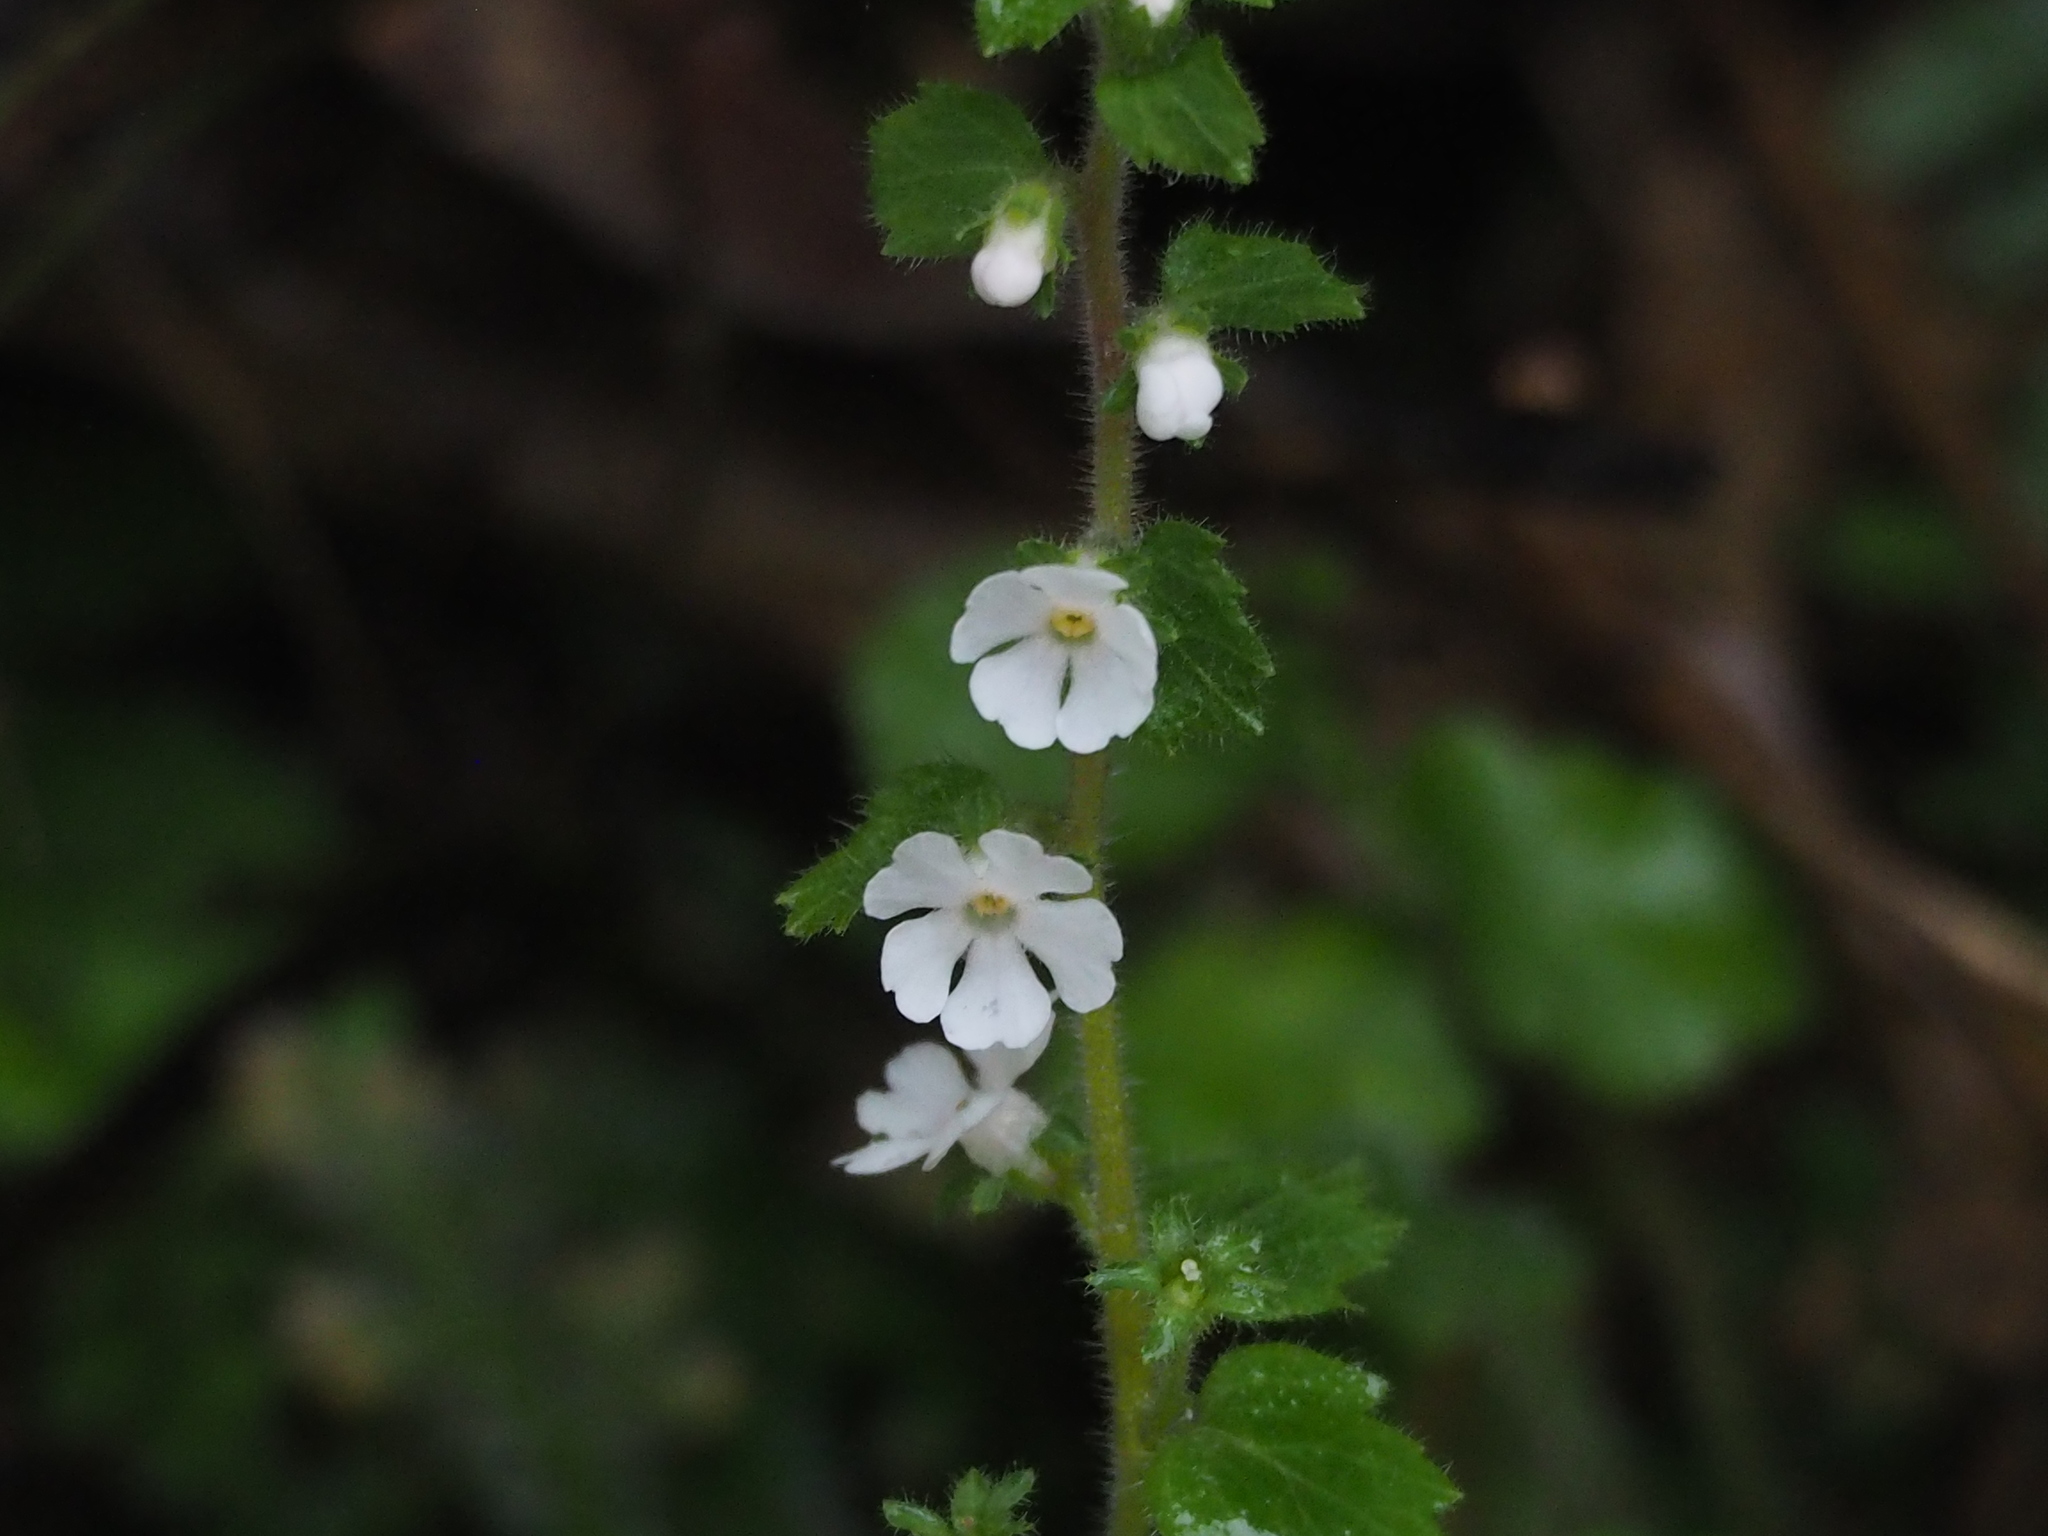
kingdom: Plantae
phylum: Tracheophyta
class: Magnoliopsida
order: Ericales
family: Primulaceae
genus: Stimpsonia
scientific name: Stimpsonia chamaedryoides
